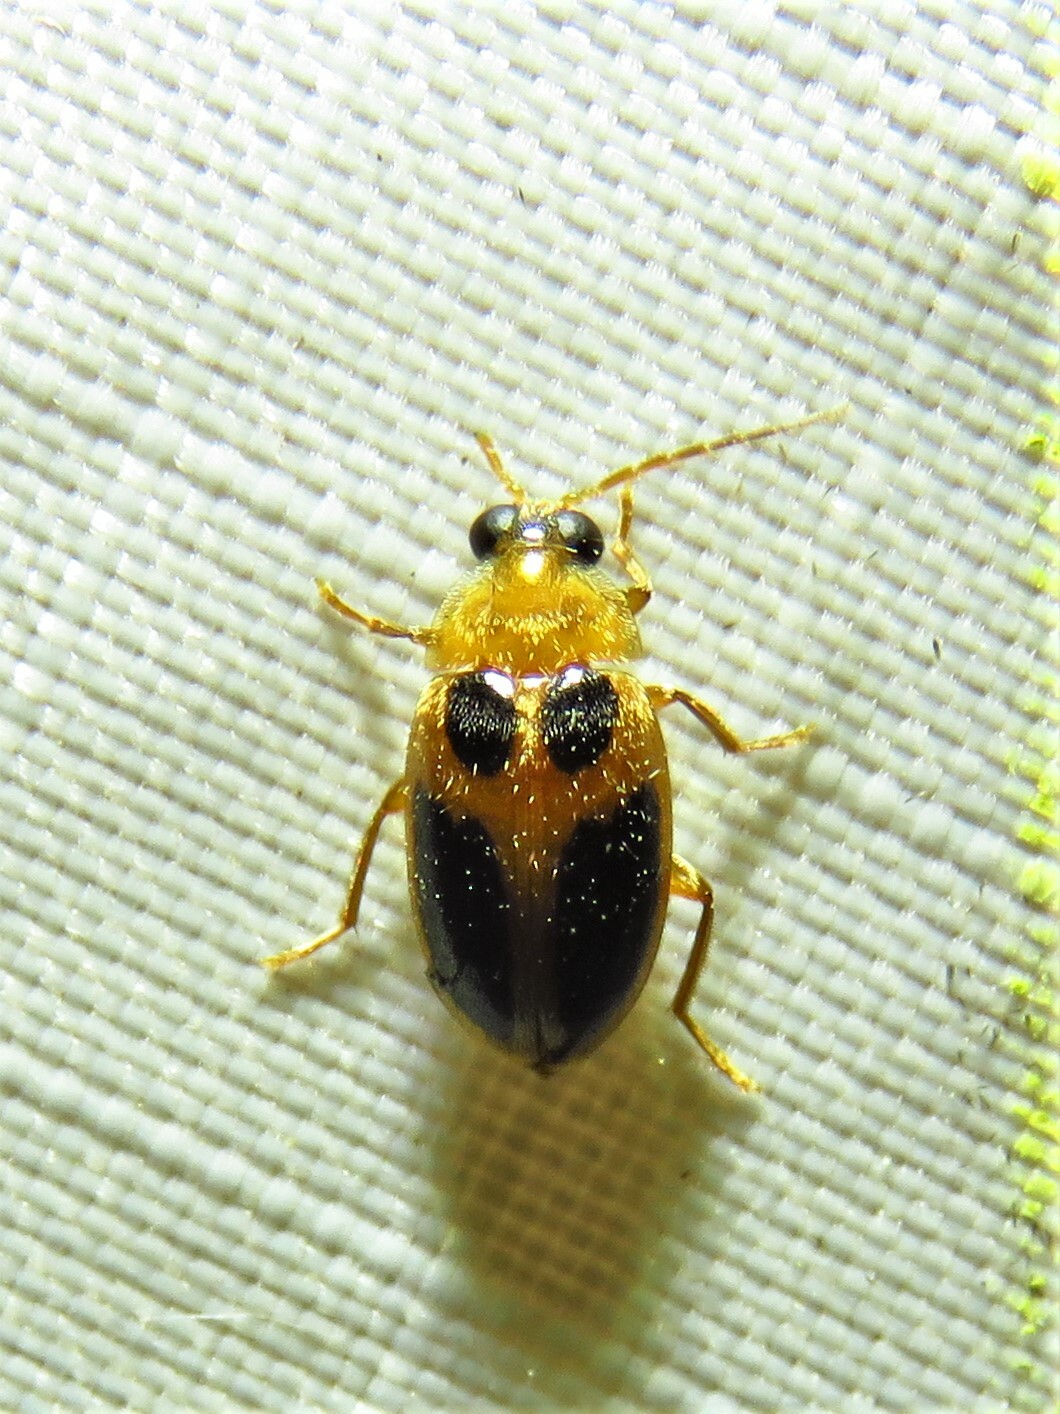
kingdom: Animalia
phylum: Arthropoda
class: Insecta
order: Coleoptera
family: Scirtidae
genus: Sacodes
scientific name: Sacodes pulchella
